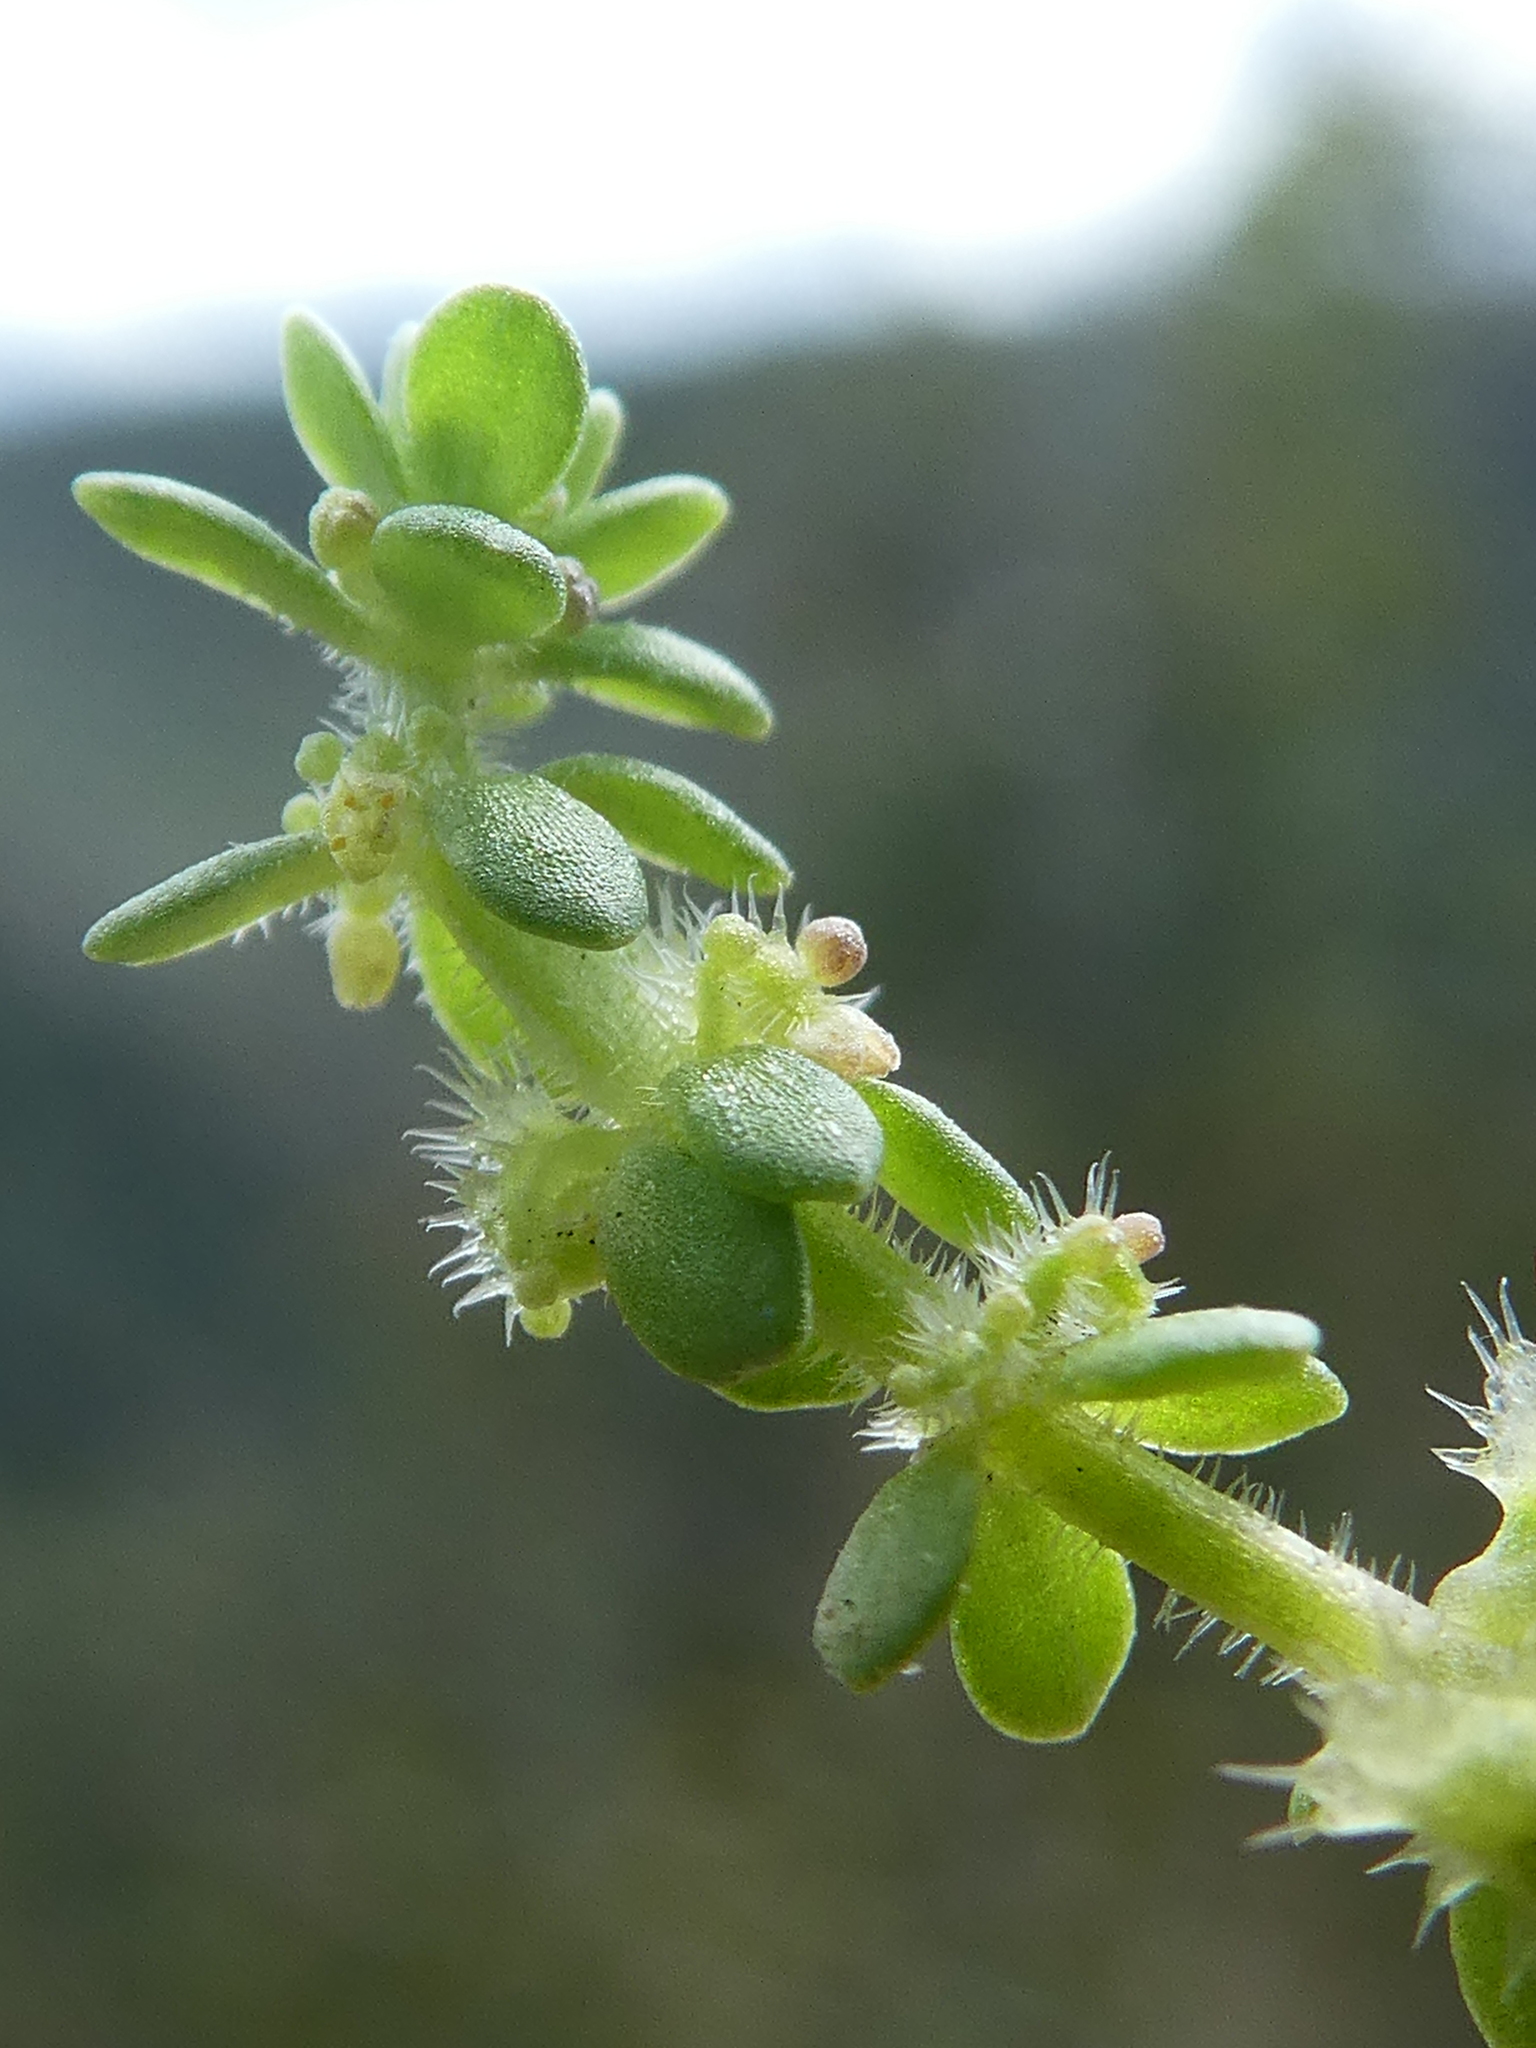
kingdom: Plantae
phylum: Tracheophyta
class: Magnoliopsida
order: Gentianales
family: Rubiaceae
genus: Valantia
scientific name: Valantia muralis
